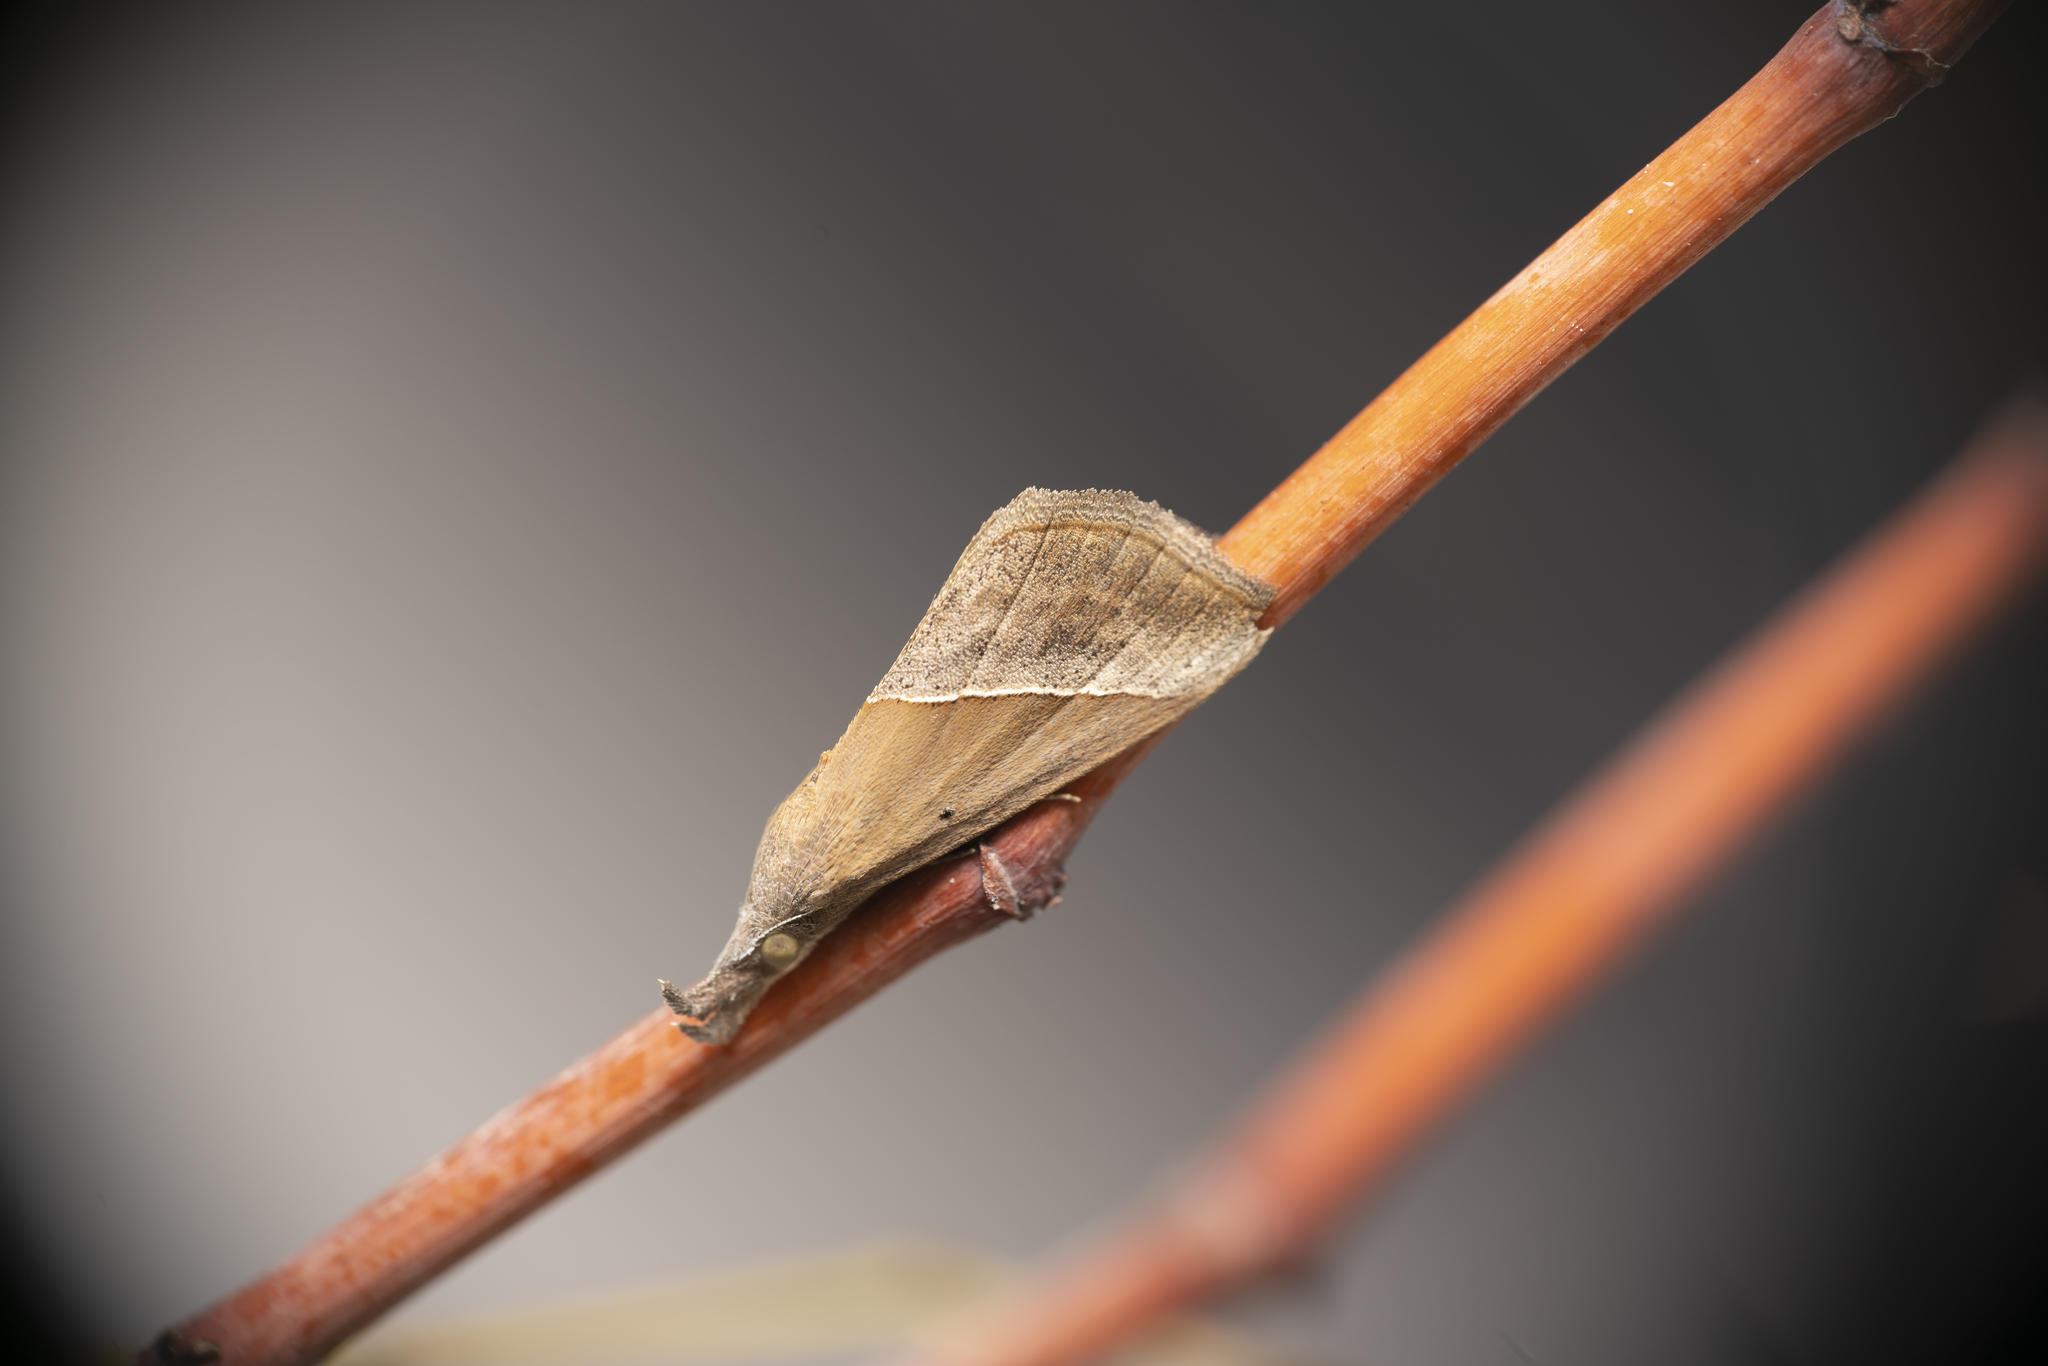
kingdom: Animalia
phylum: Arthropoda
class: Insecta
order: Lepidoptera
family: Erebidae
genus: Hypena
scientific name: Hypena lividalis
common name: Chevron snout
